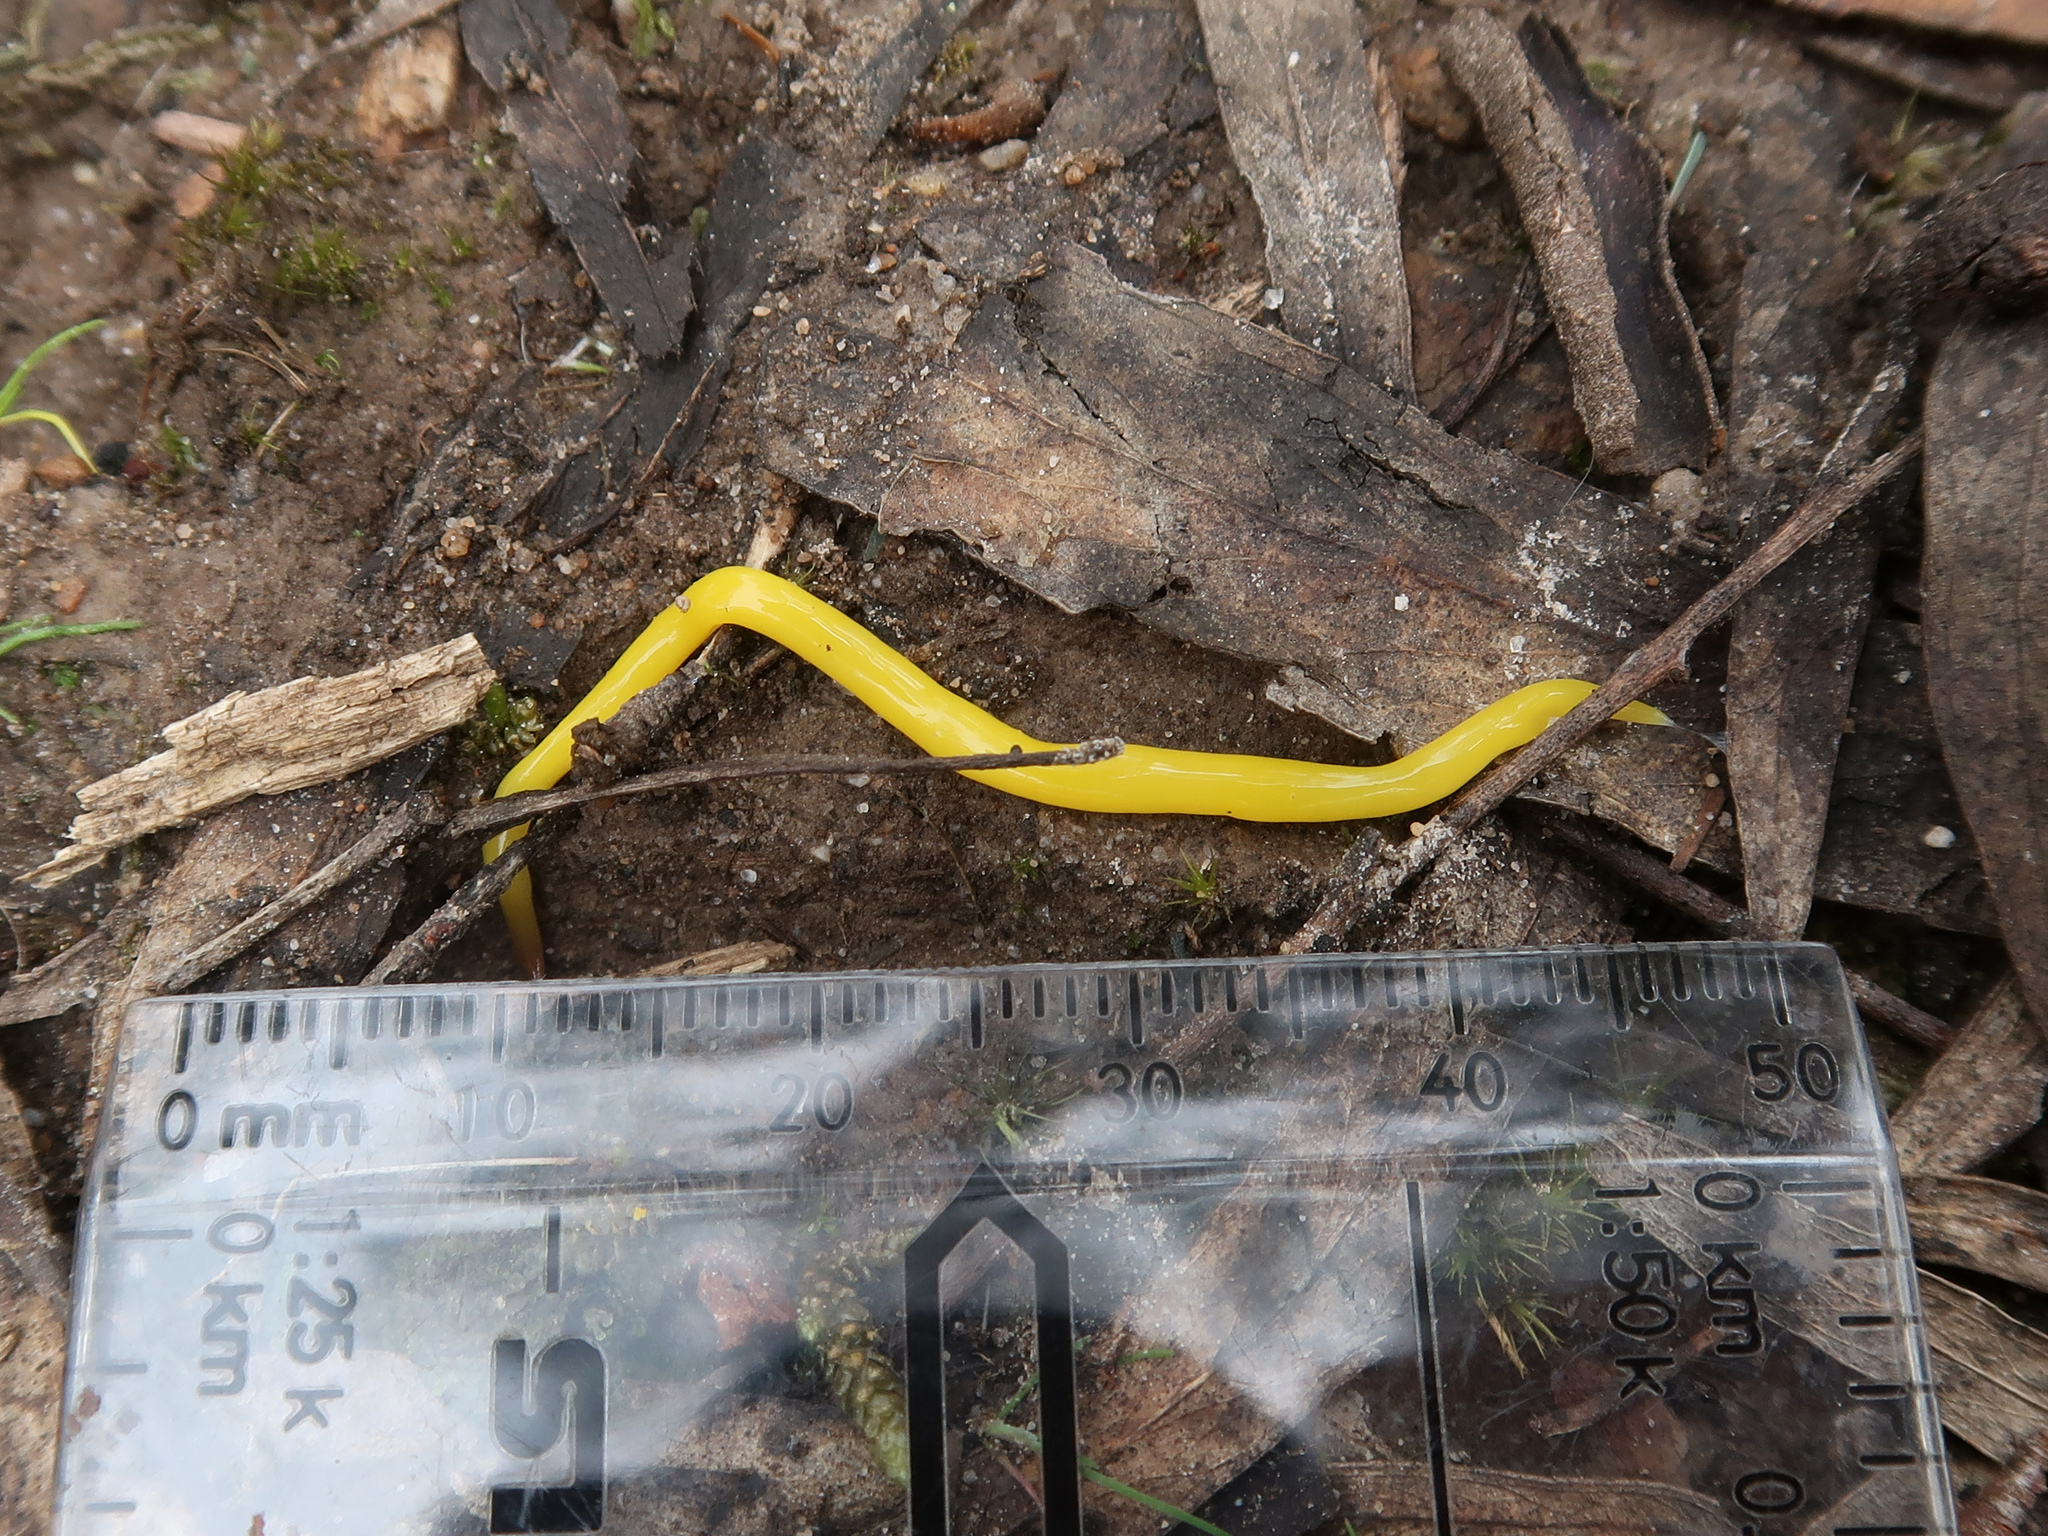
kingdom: Animalia
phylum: Platyhelminthes
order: Tricladida
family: Geoplanidae
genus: Fletchamia
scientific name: Fletchamia sugdeni
